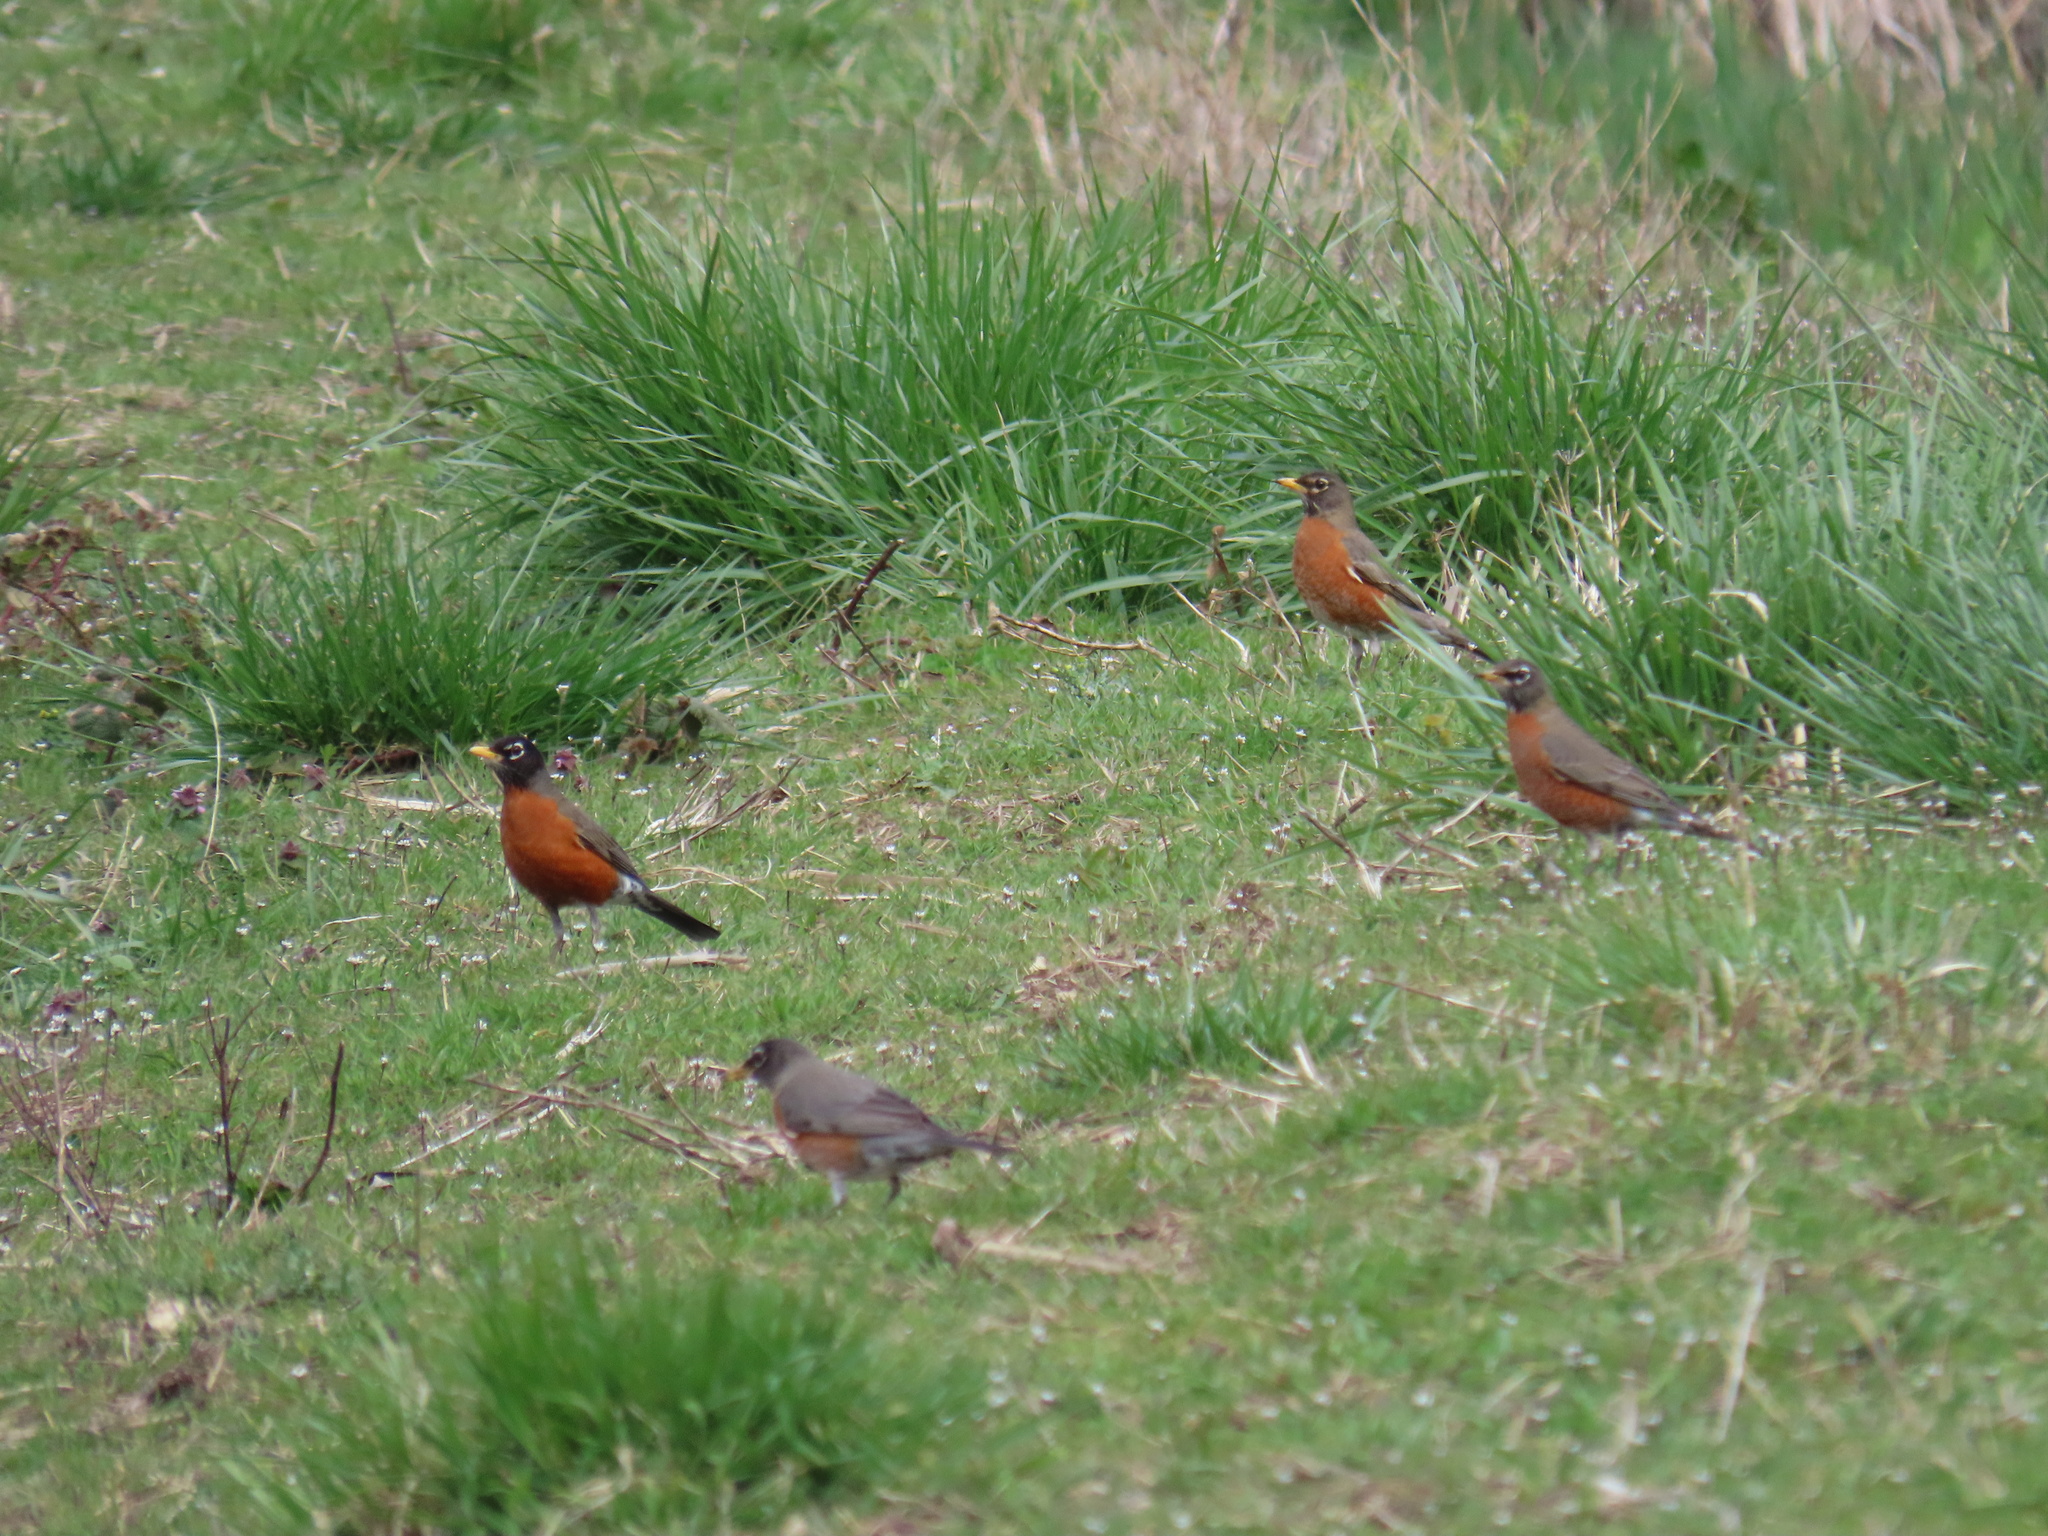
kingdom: Animalia
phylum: Chordata
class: Aves
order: Passeriformes
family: Turdidae
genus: Turdus
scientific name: Turdus migratorius
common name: American robin
